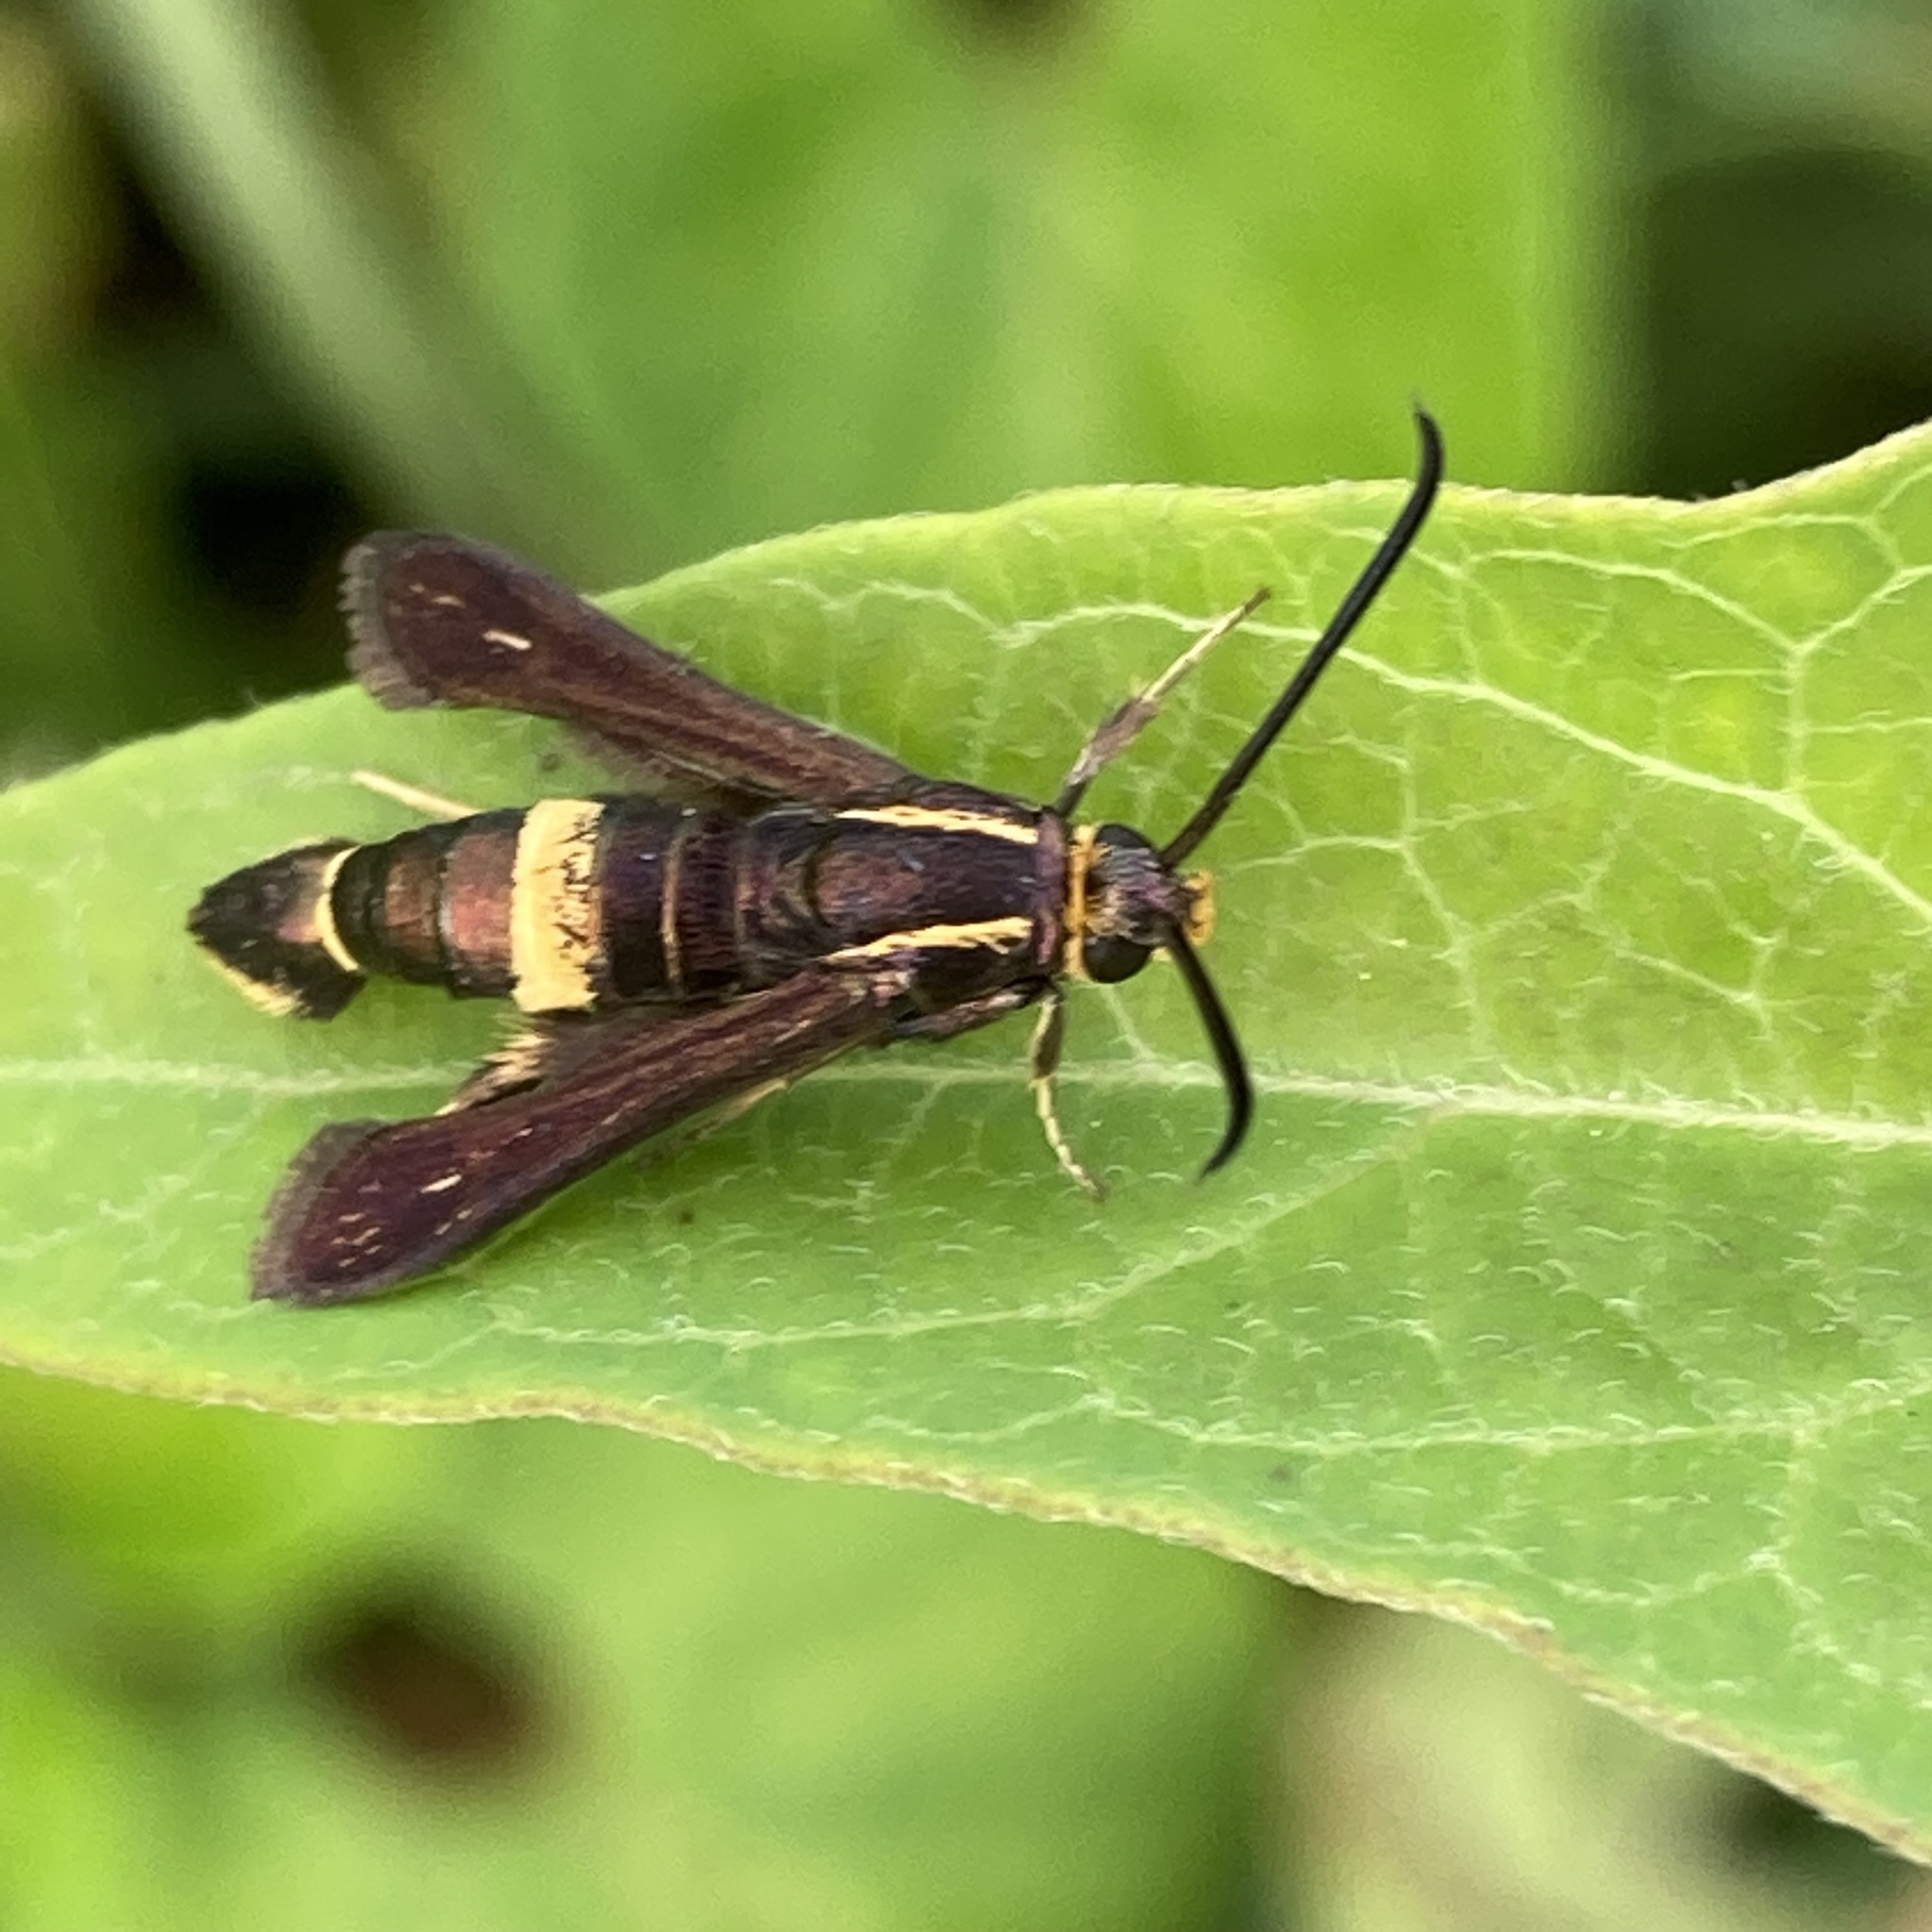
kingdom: Animalia
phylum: Arthropoda
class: Insecta
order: Lepidoptera
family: Sesiidae
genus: Carmenta
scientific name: Carmenta pyralidiformis
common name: Boneset borer moth
